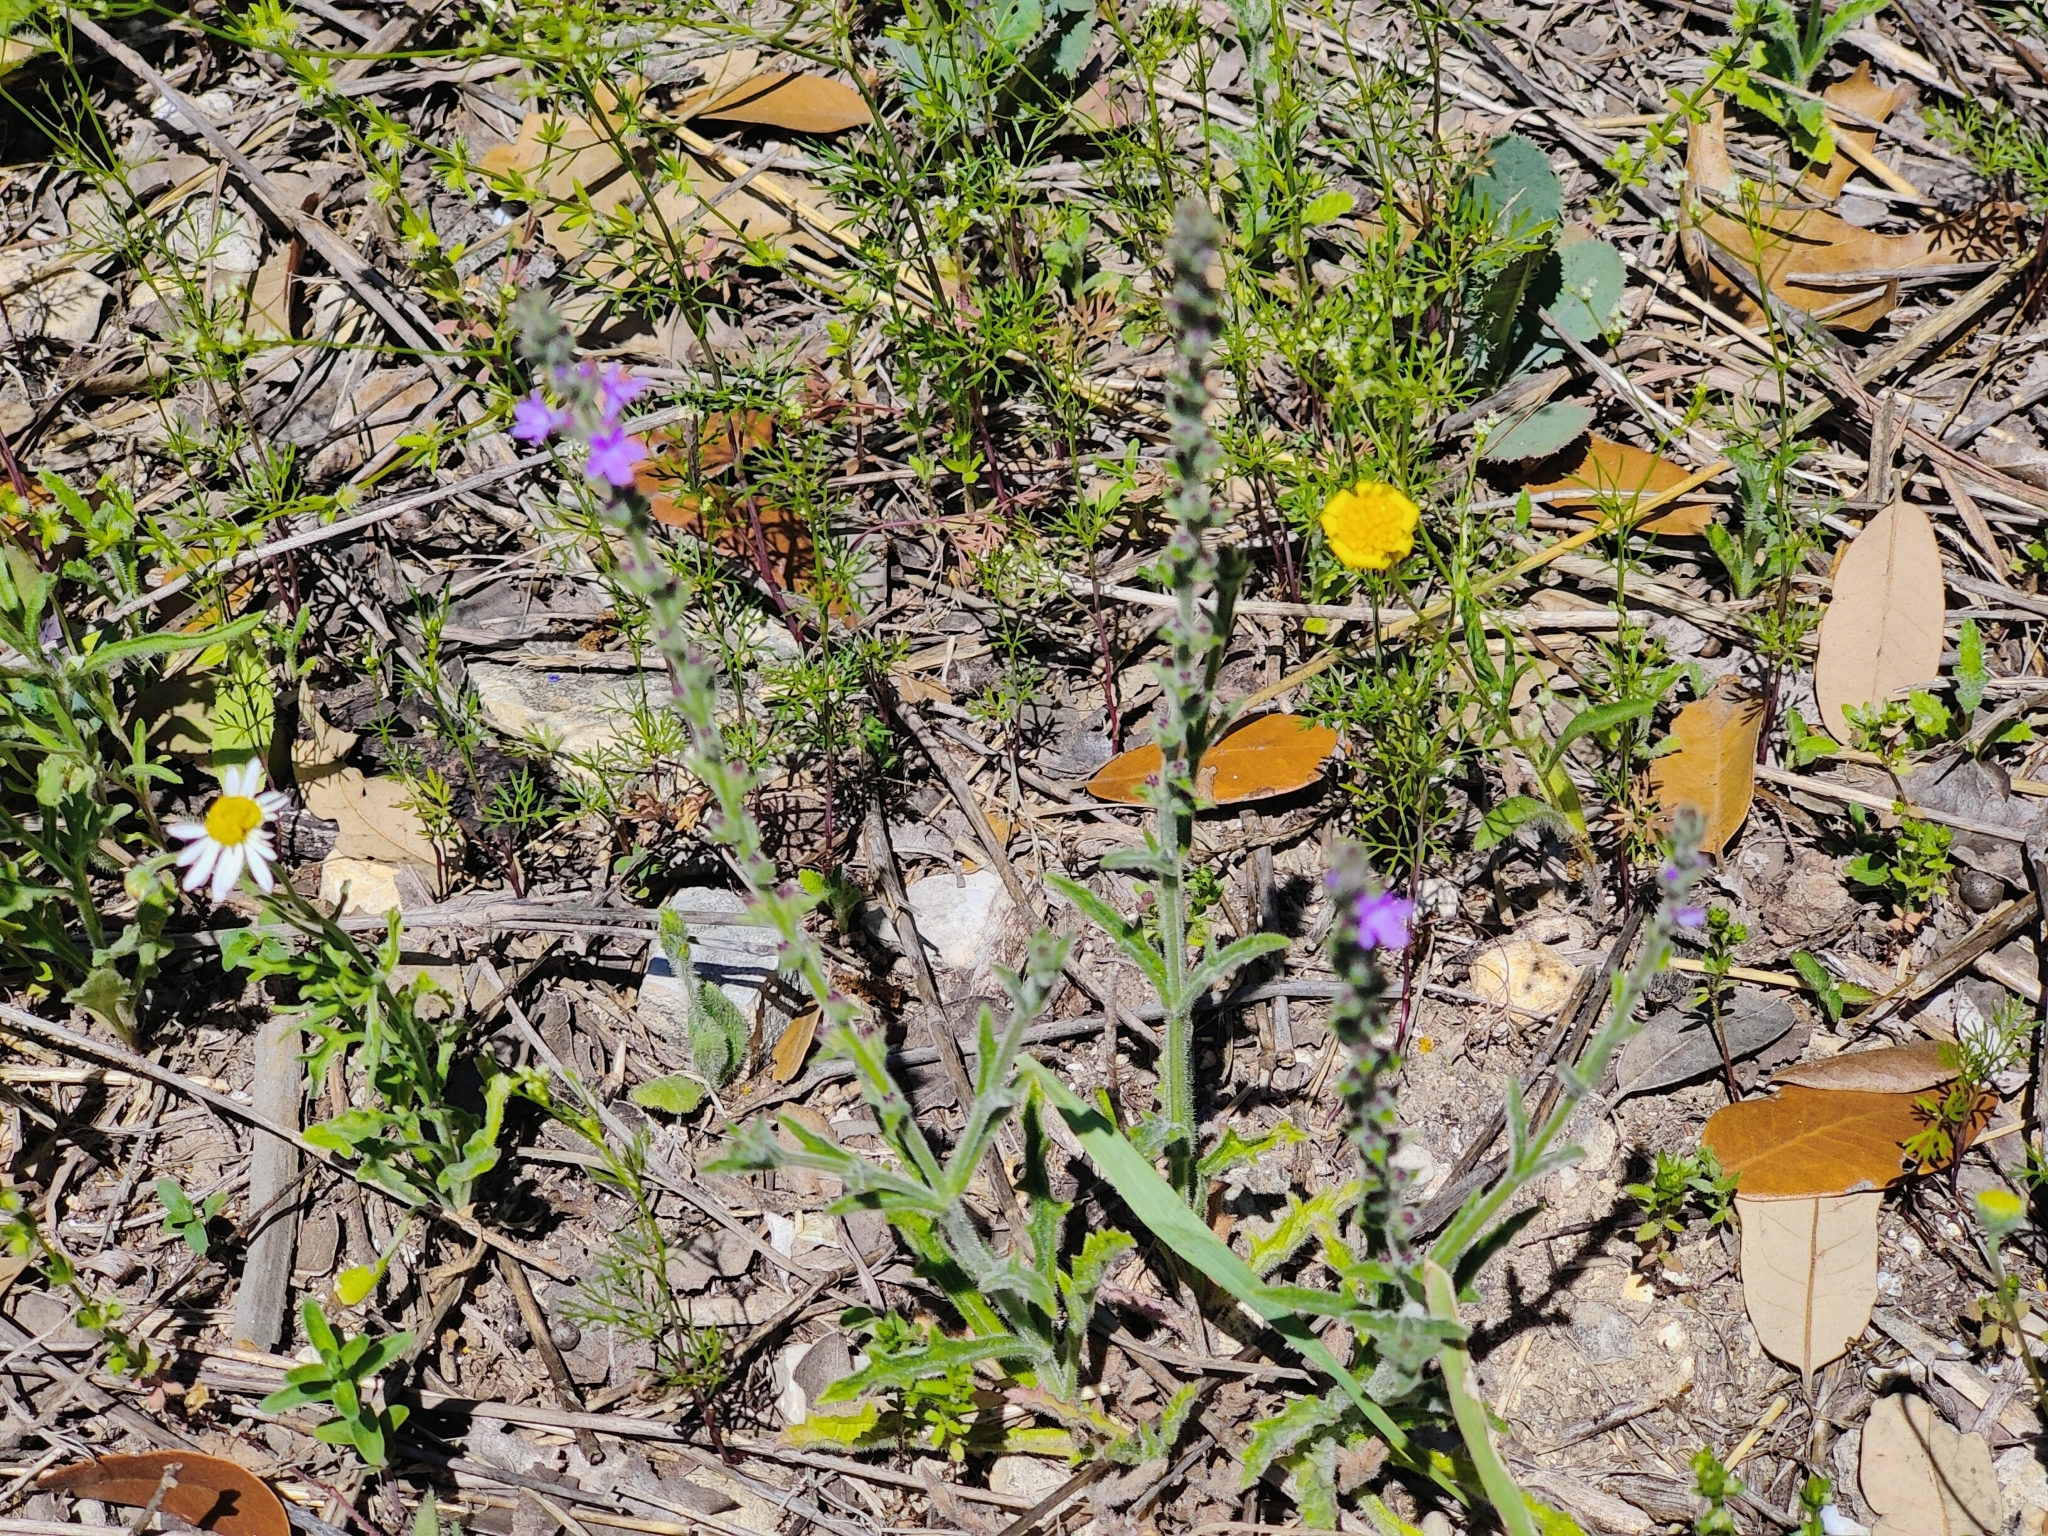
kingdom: Plantae
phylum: Tracheophyta
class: Magnoliopsida
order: Lamiales
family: Verbenaceae
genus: Verbena
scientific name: Verbena canescens
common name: Gray vervain
